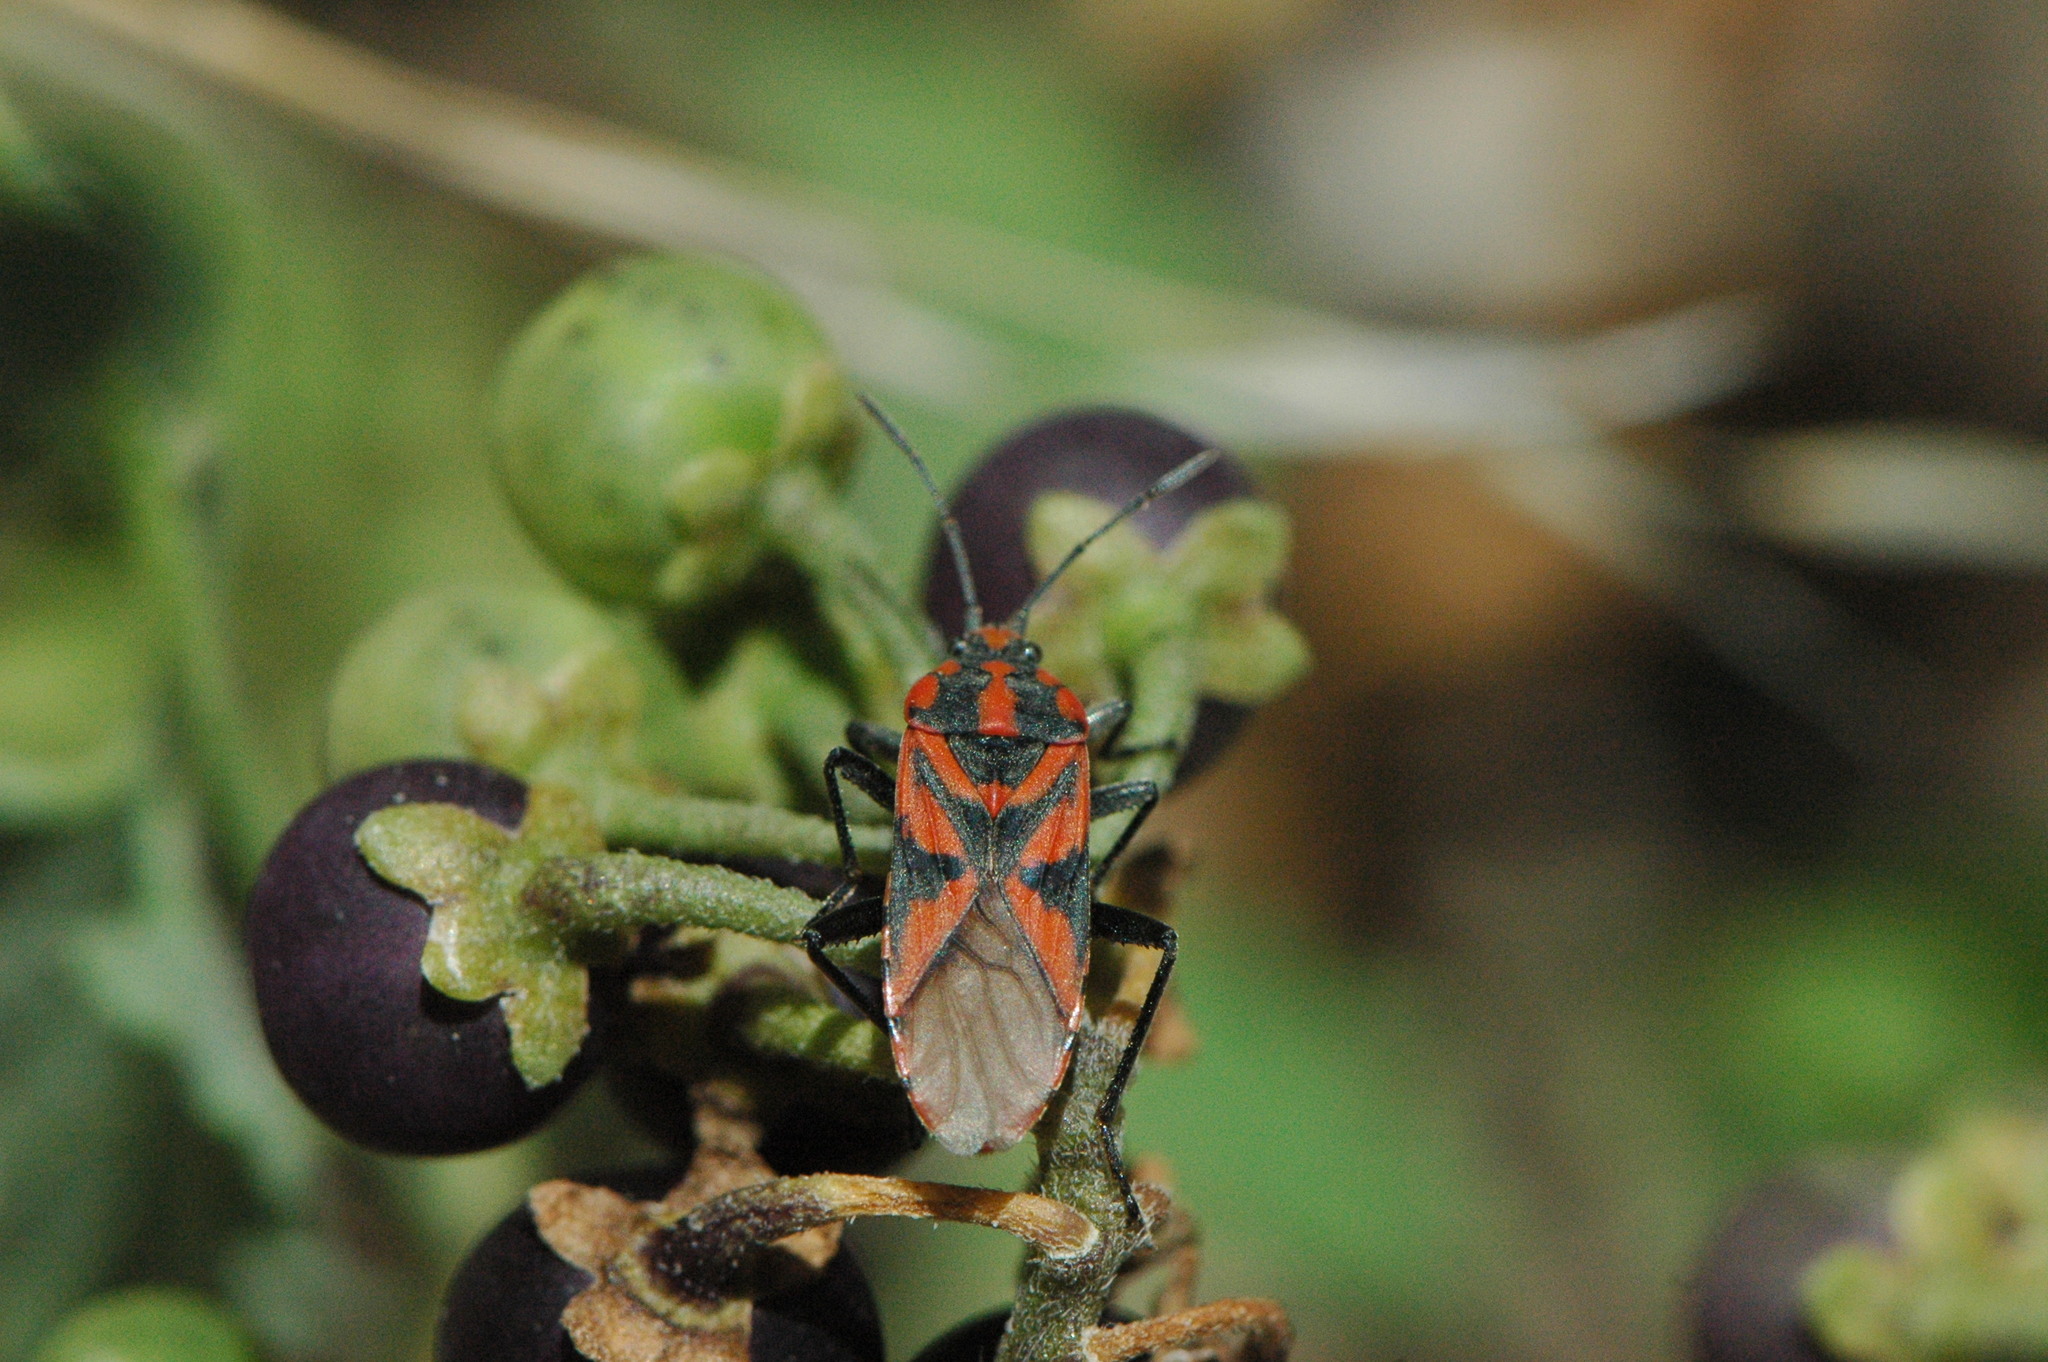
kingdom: Animalia
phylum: Arthropoda
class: Insecta
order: Hemiptera
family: Lygaeidae
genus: Spilostethus
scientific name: Spilostethus furcula
